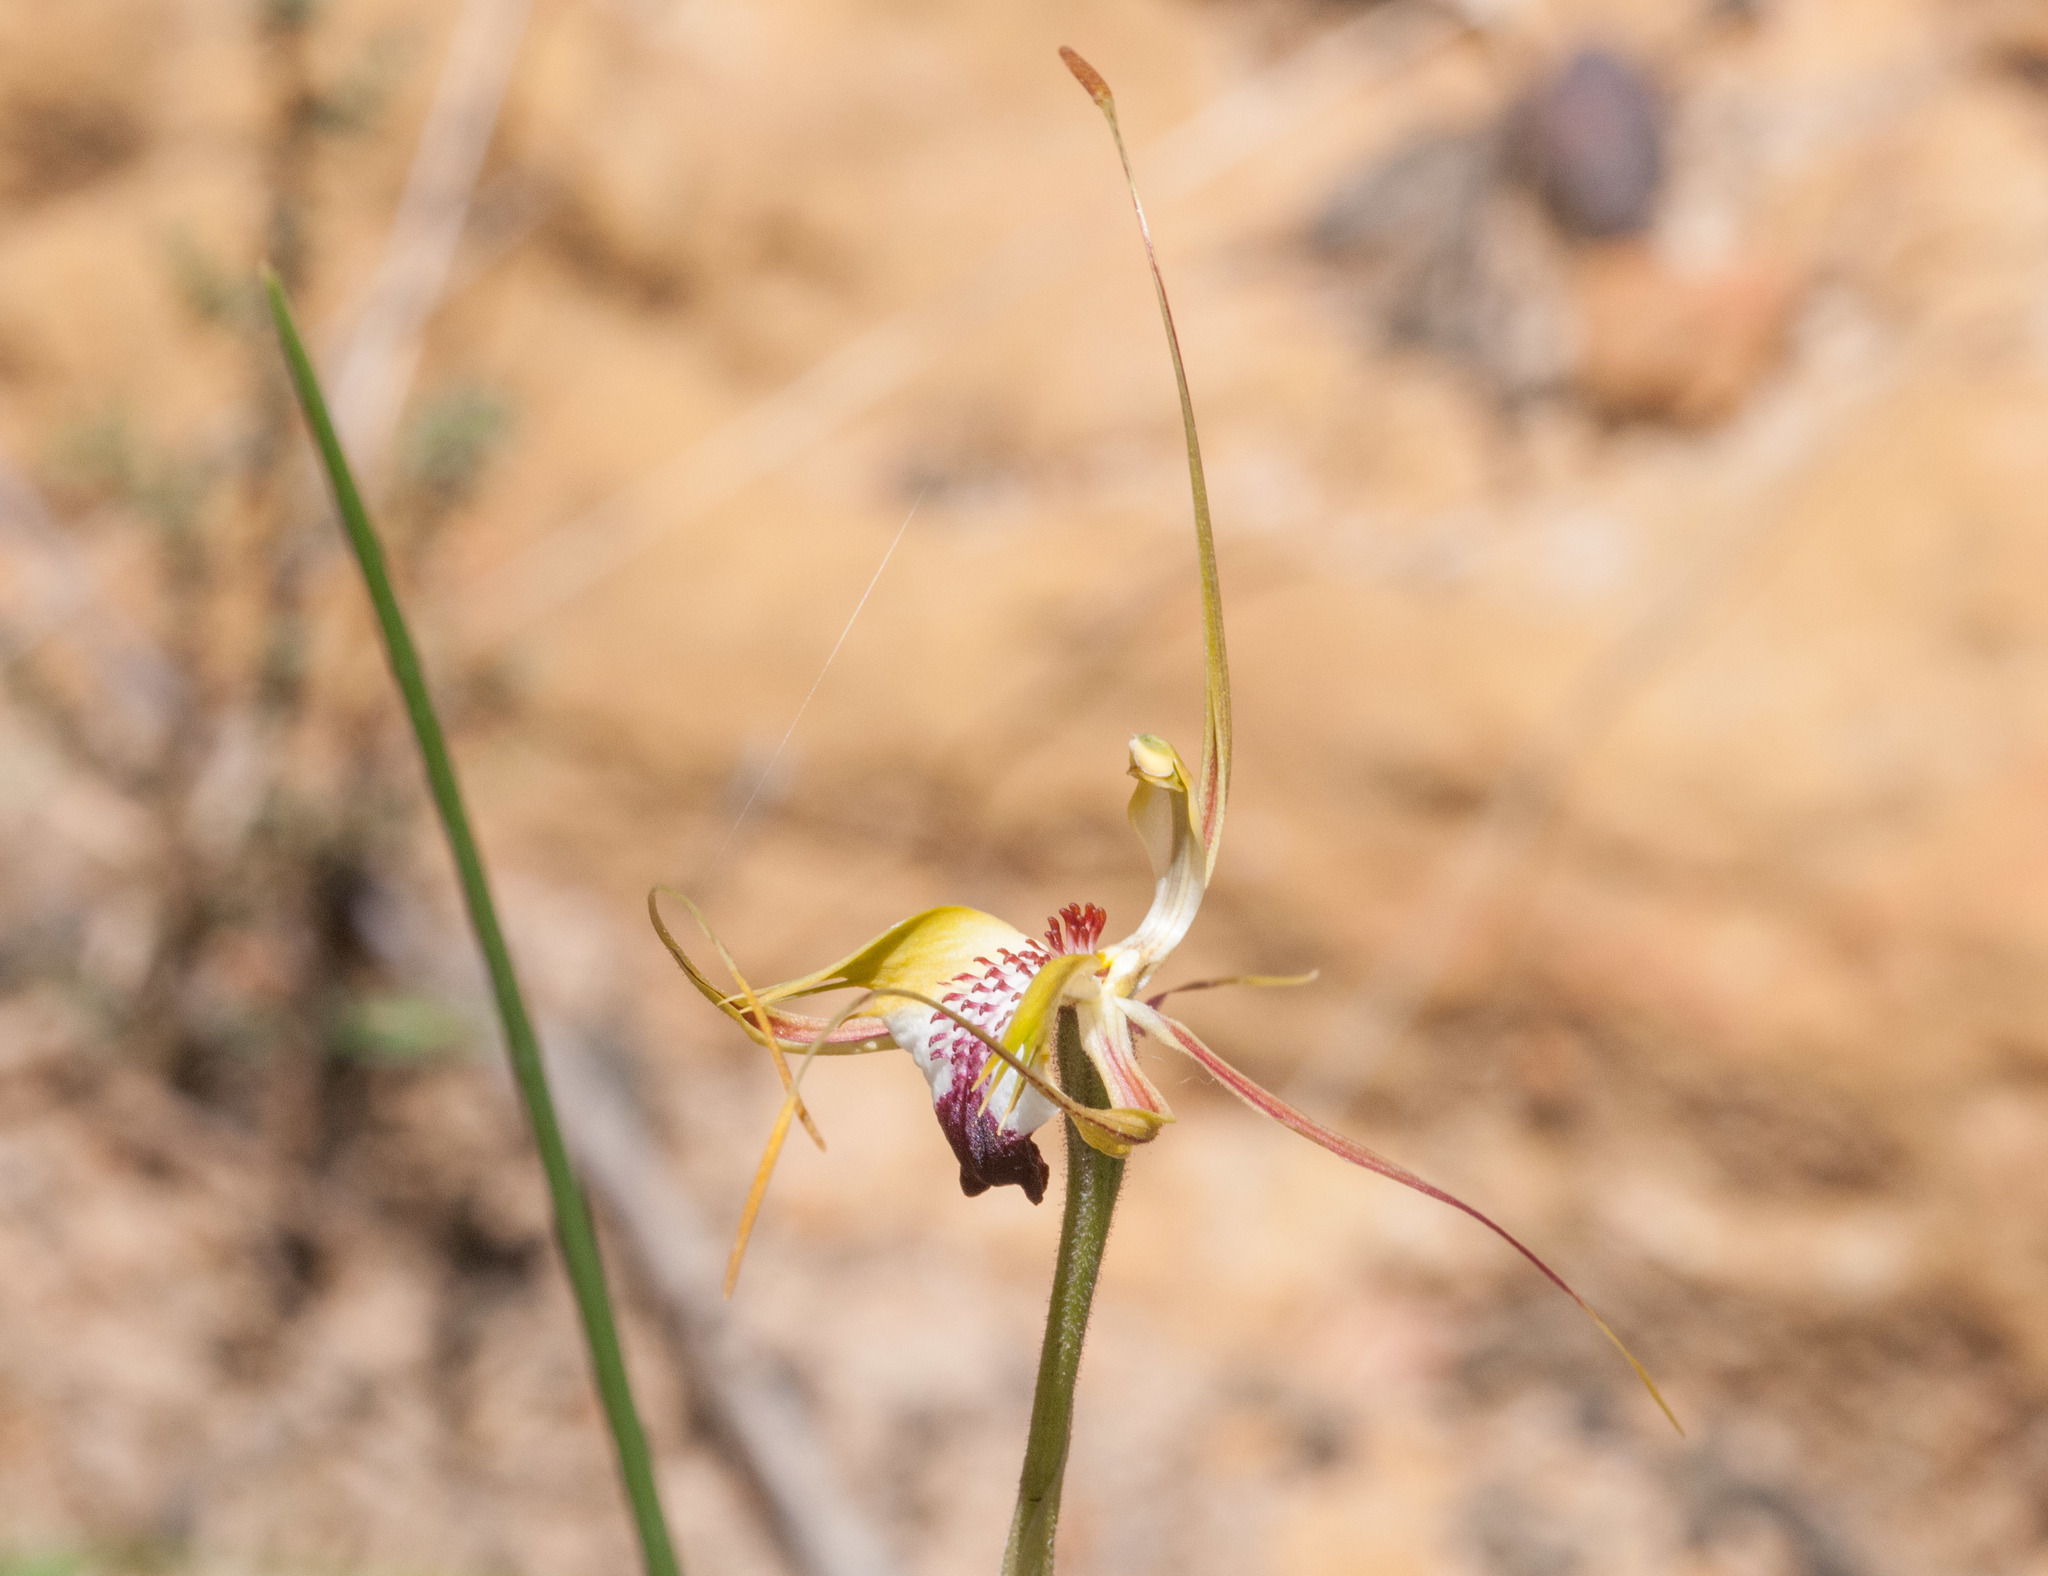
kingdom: Plantae
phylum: Tracheophyta
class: Liliopsida
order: Asparagales
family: Orchidaceae
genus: Caladenia
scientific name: Caladenia tentaculata
